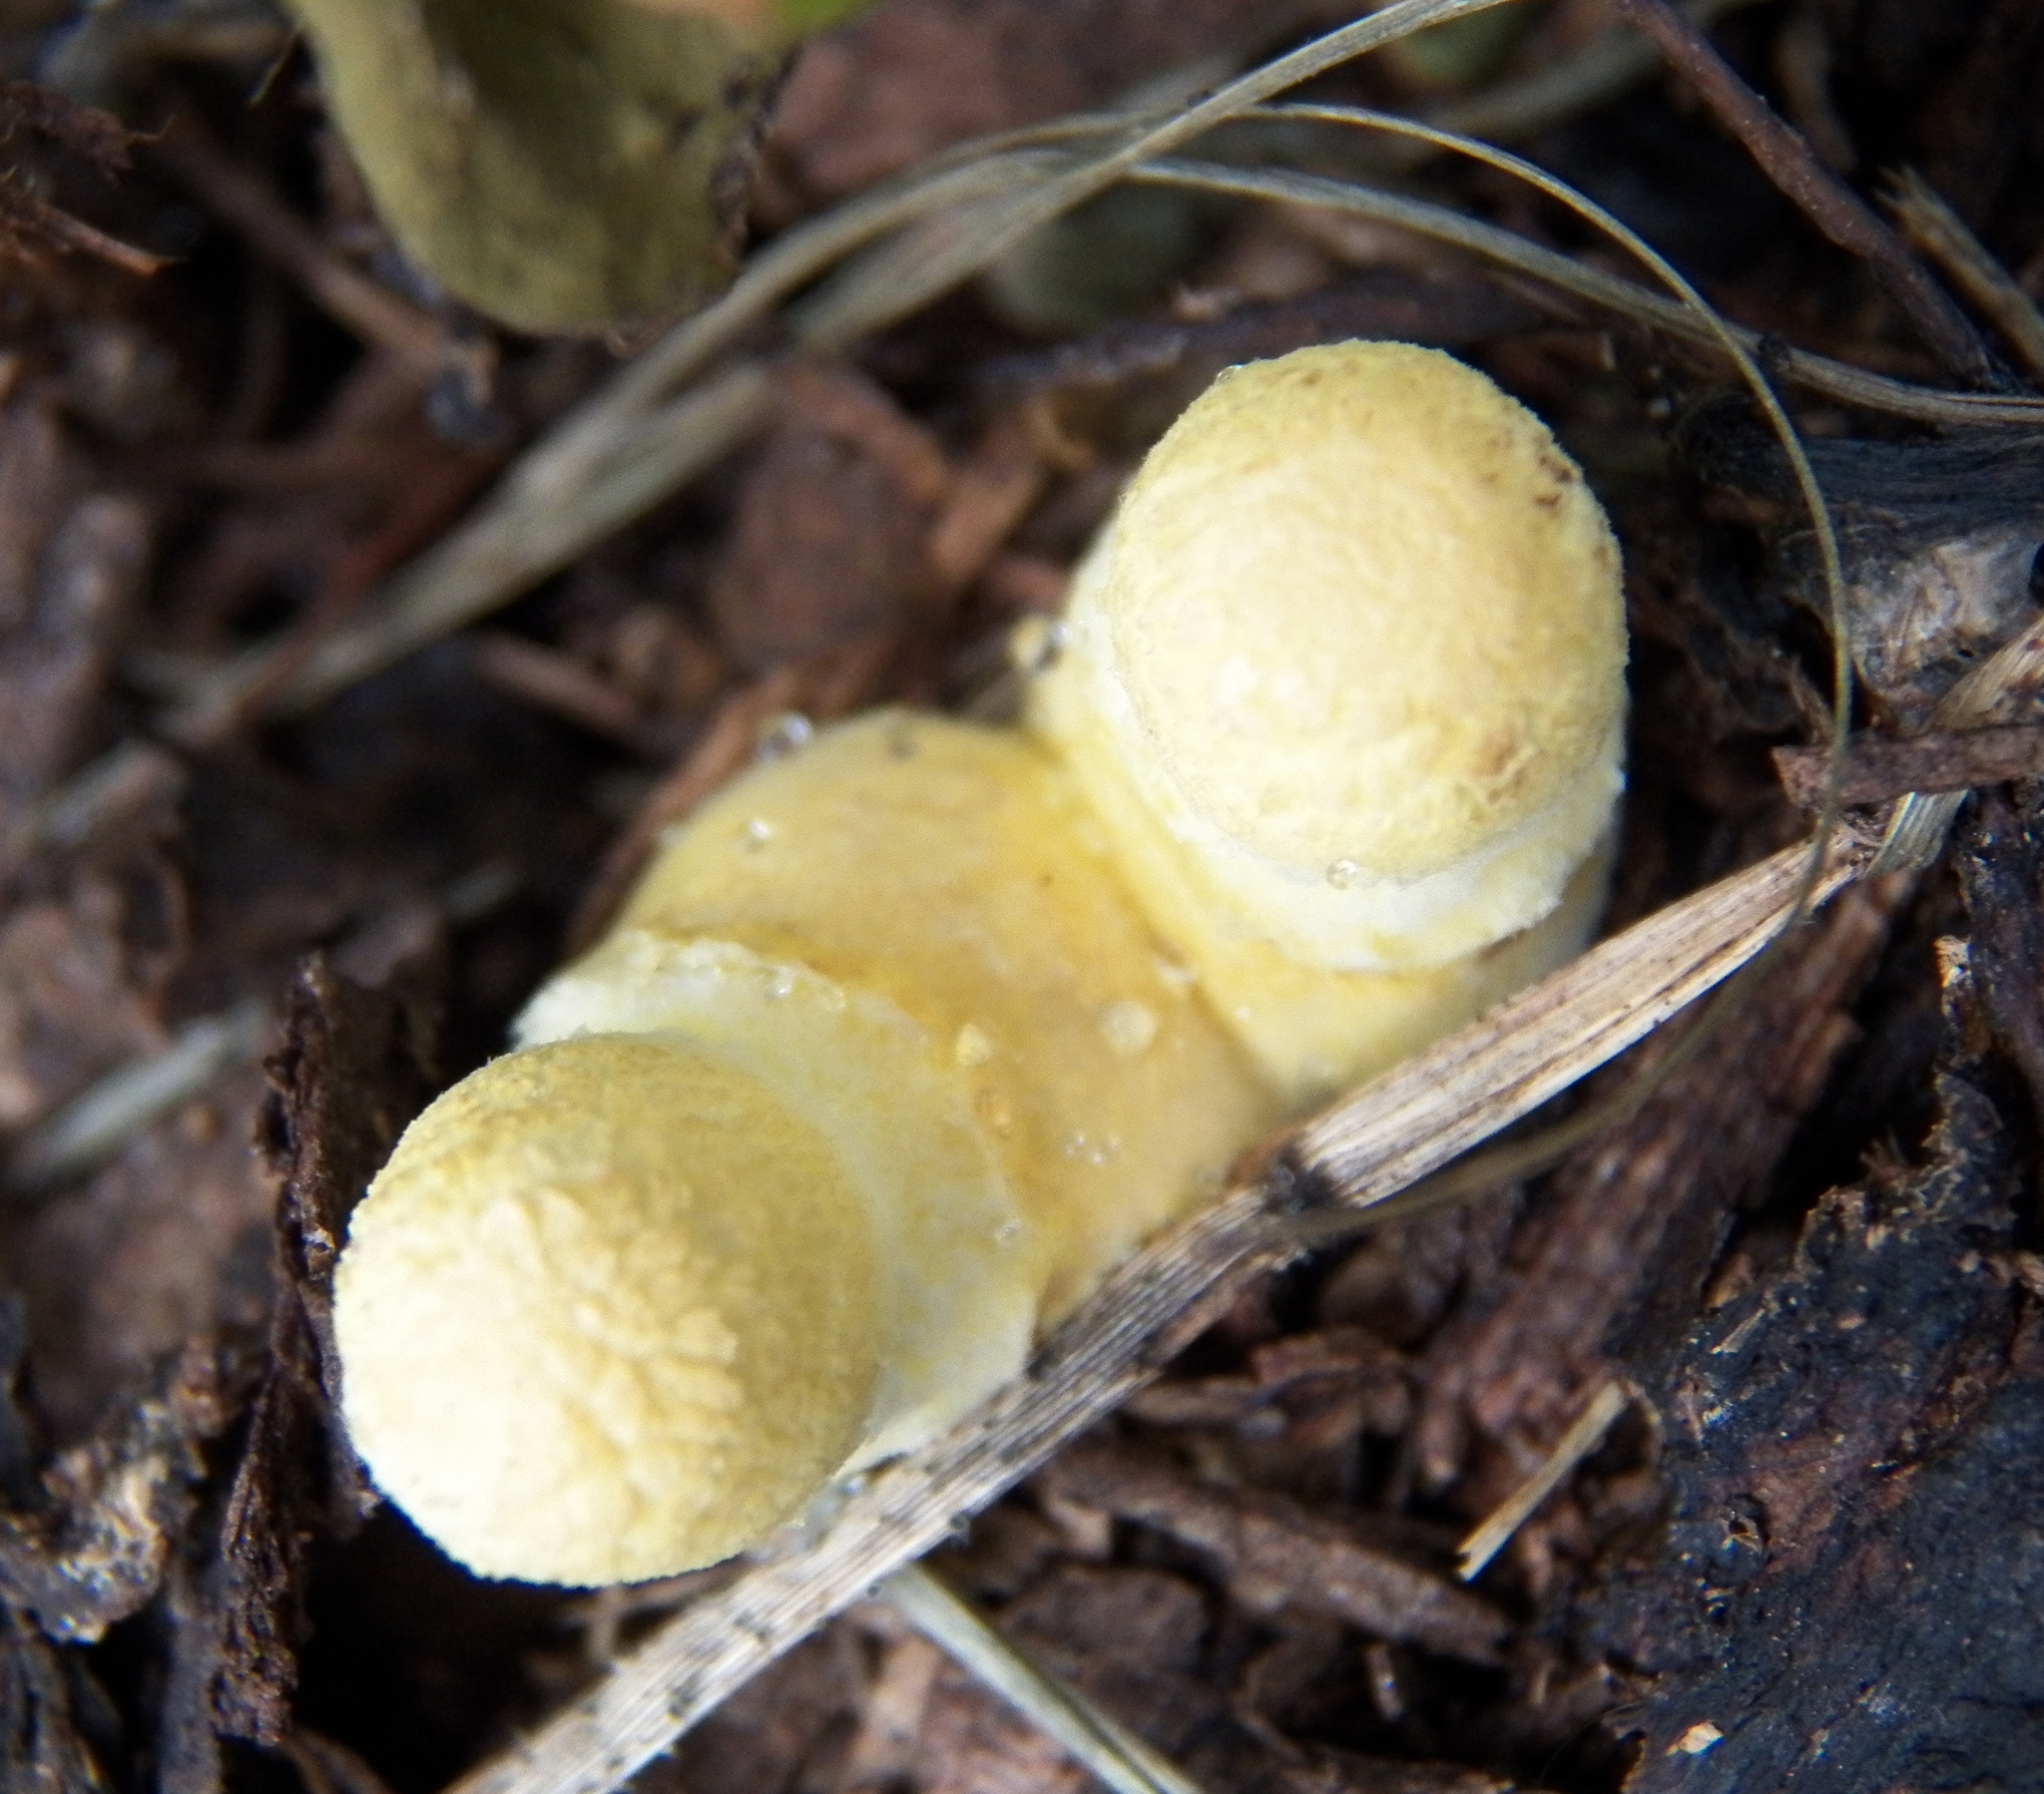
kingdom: Fungi
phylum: Basidiomycota
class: Agaricomycetes
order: Agaricales
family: Agaricaceae
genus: Leucocoprinus
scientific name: Leucocoprinus birnbaumii
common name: Plantpot dapperling
